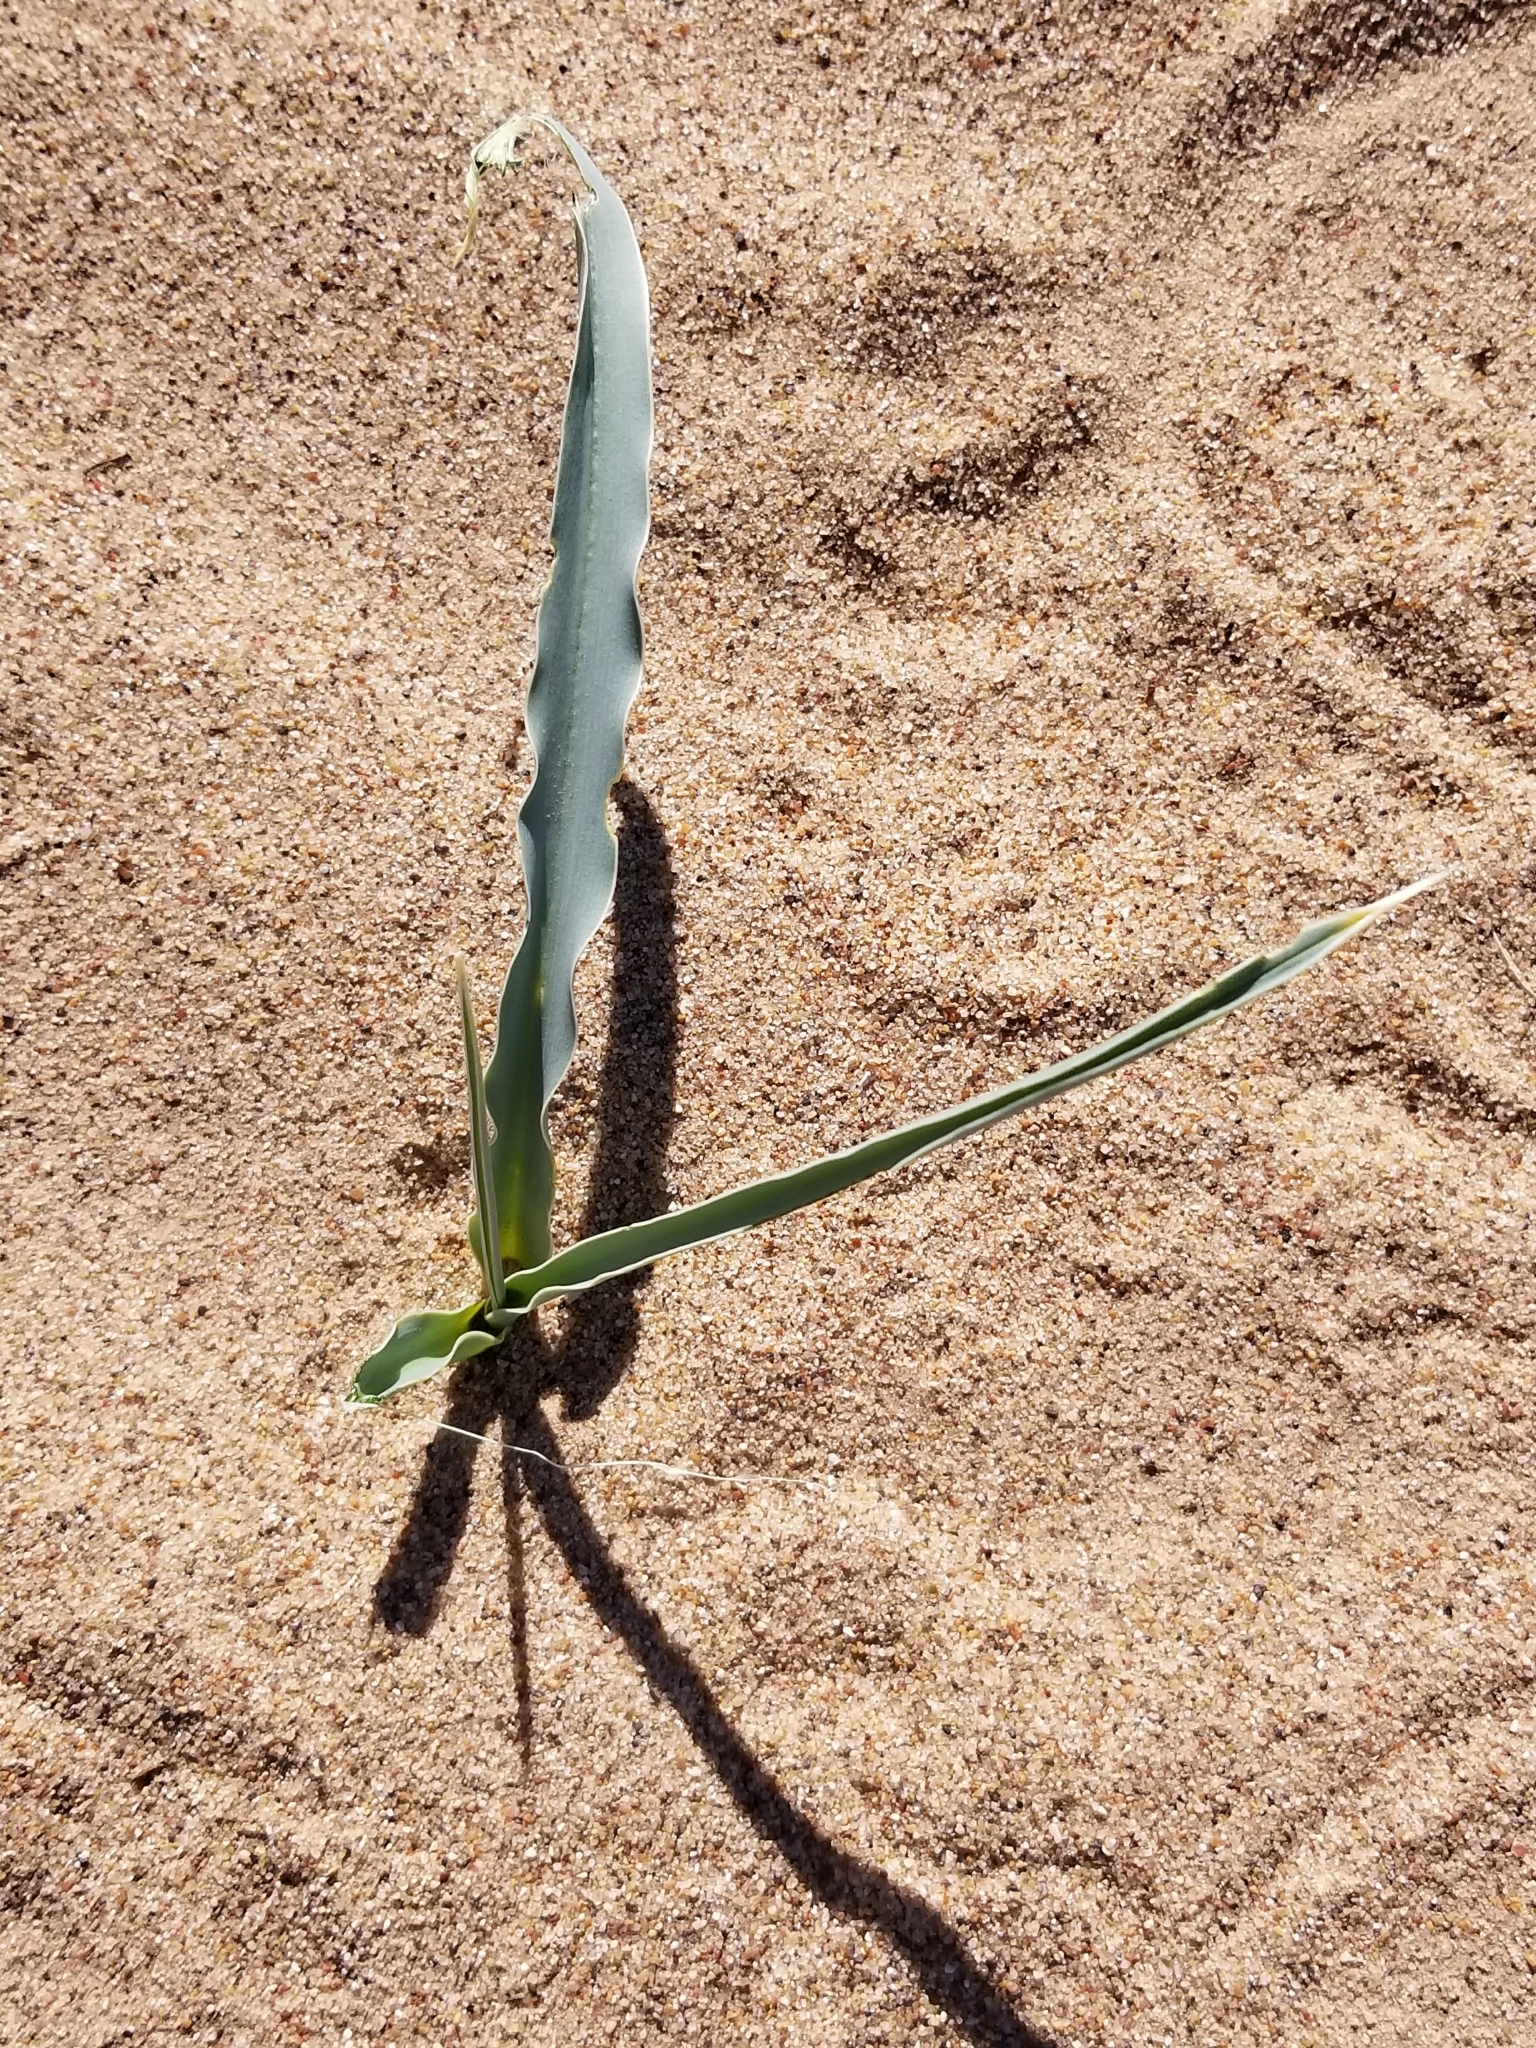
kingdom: Plantae
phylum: Tracheophyta
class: Liliopsida
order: Asparagales
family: Asparagaceae
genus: Hesperocallis
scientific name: Hesperocallis undulata
